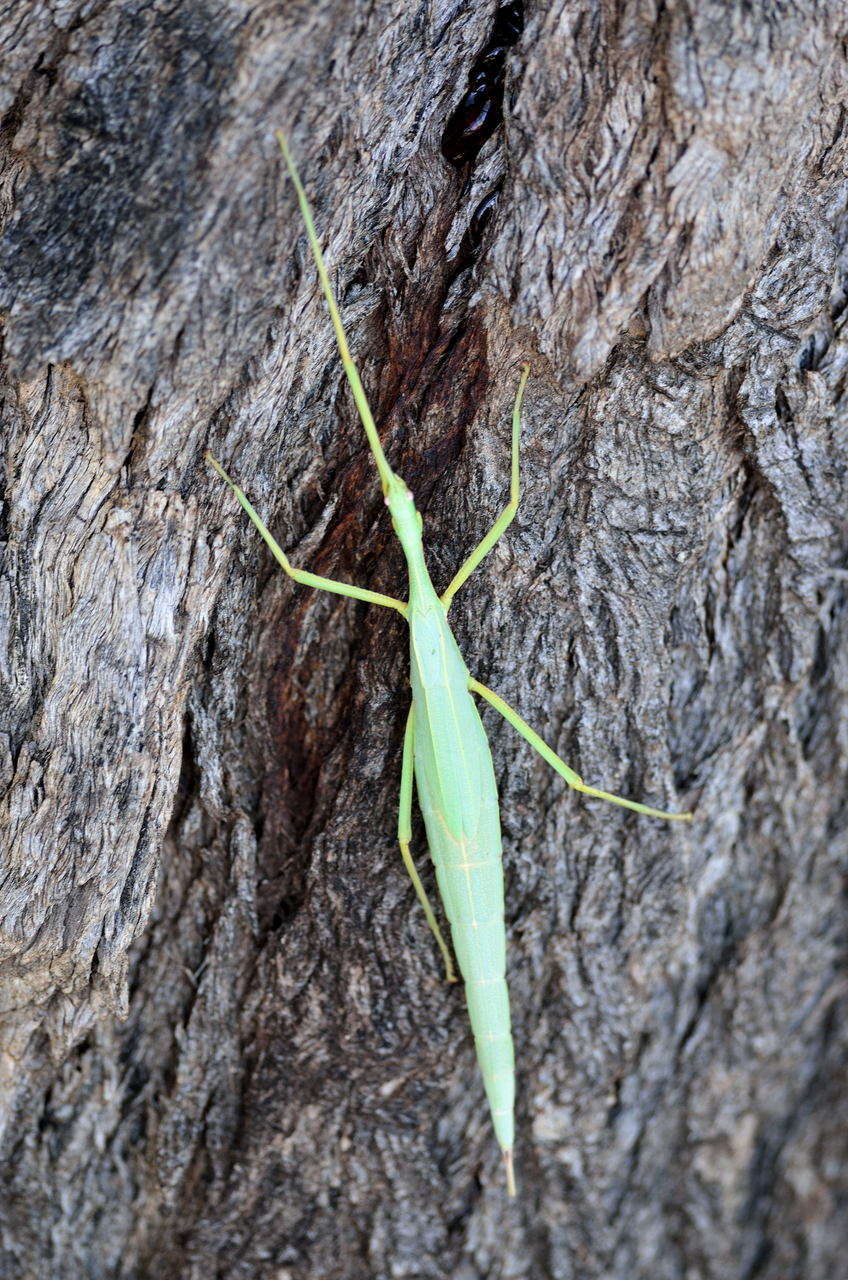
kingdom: Animalia
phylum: Arthropoda
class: Insecta
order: Phasmida
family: Phasmatidae
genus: Didymuria
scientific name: Didymuria violescens
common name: Spur-legged stick-insect
